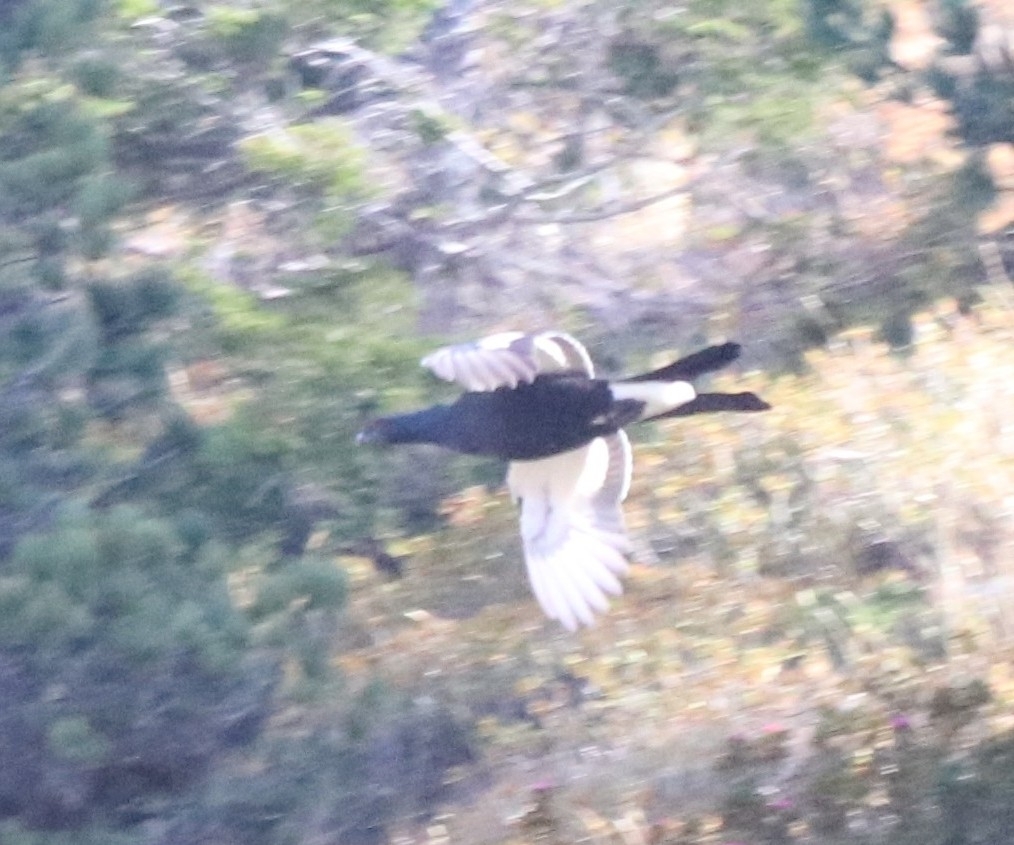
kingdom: Animalia
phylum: Chordata
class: Aves
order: Galliformes
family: Phasianidae
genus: Lyrurus
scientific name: Lyrurus tetrix
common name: Black grouse
